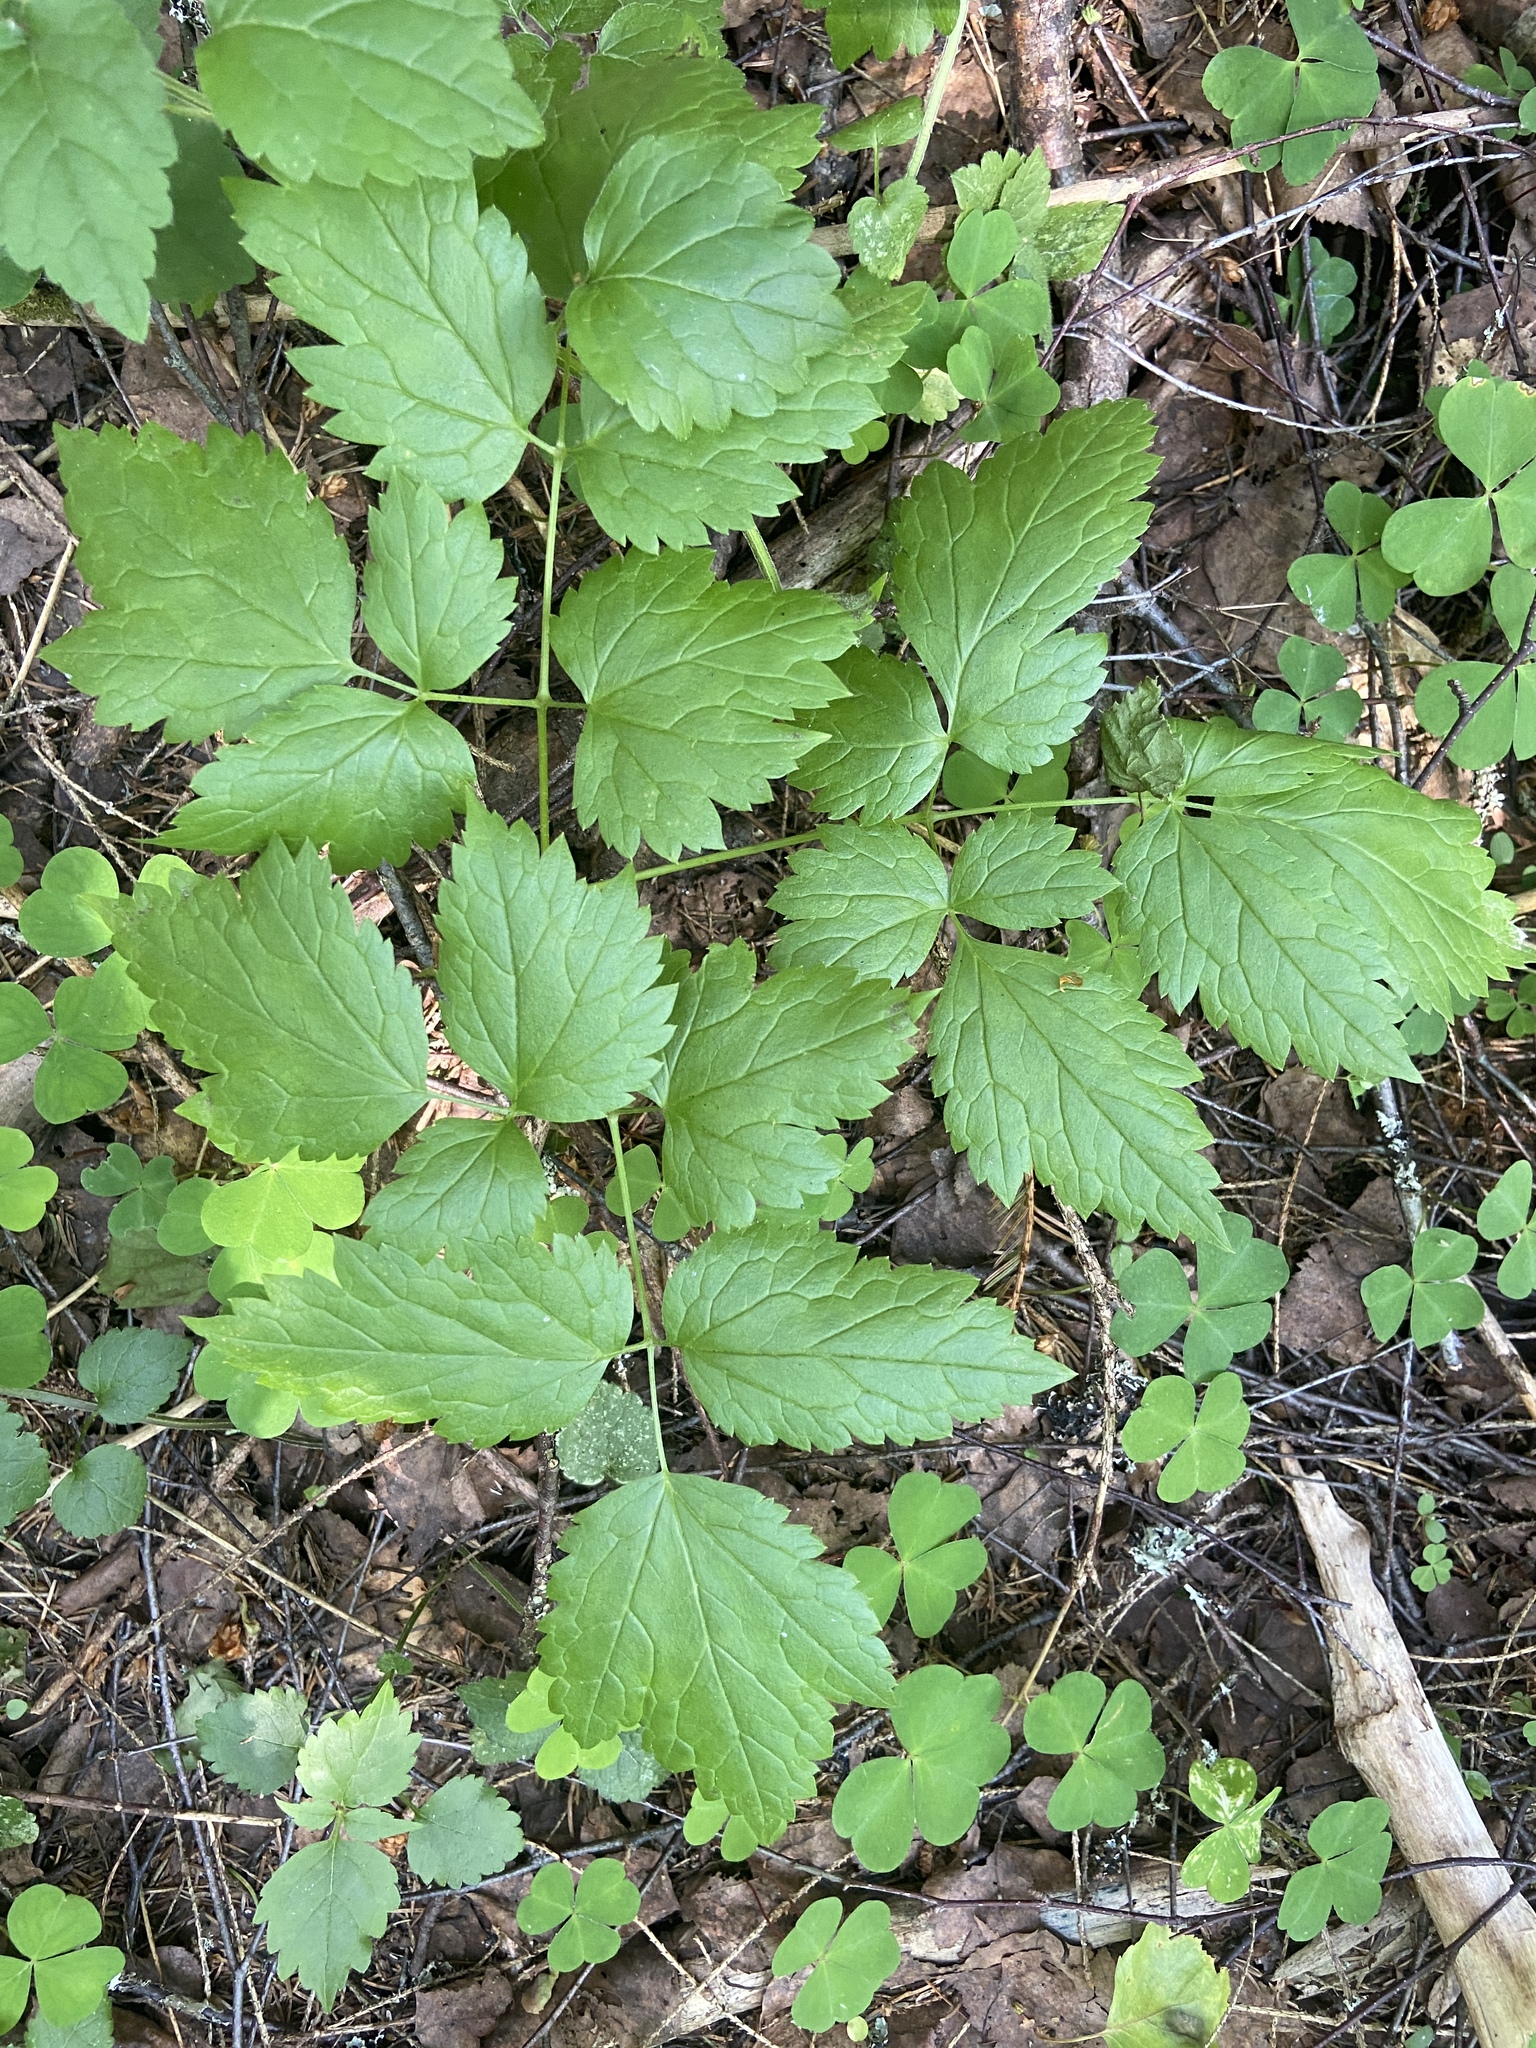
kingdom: Plantae
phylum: Tracheophyta
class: Magnoliopsida
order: Ranunculales
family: Ranunculaceae
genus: Actaea
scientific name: Actaea spicata
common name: Baneberry
